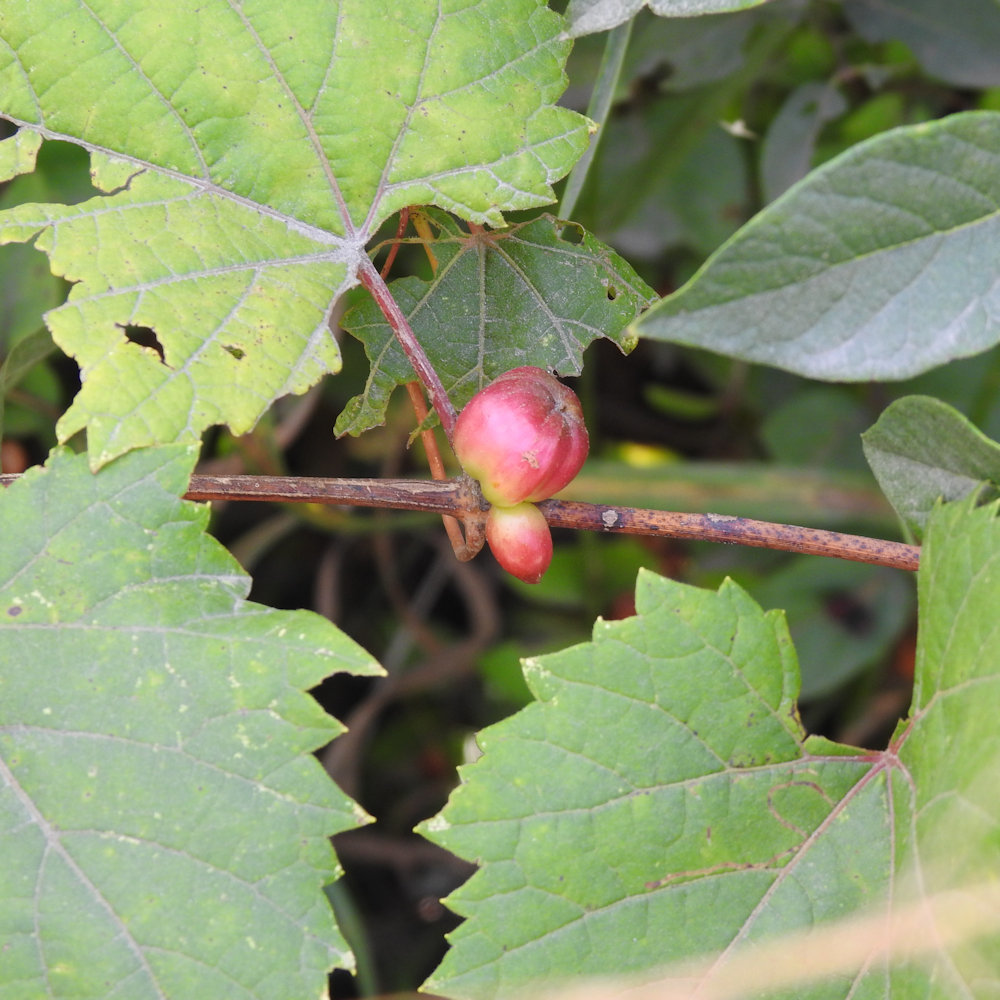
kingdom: Animalia
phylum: Arthropoda
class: Insecta
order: Diptera
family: Cecidomyiidae
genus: Ampelomyia
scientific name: Ampelomyia vitispomum
